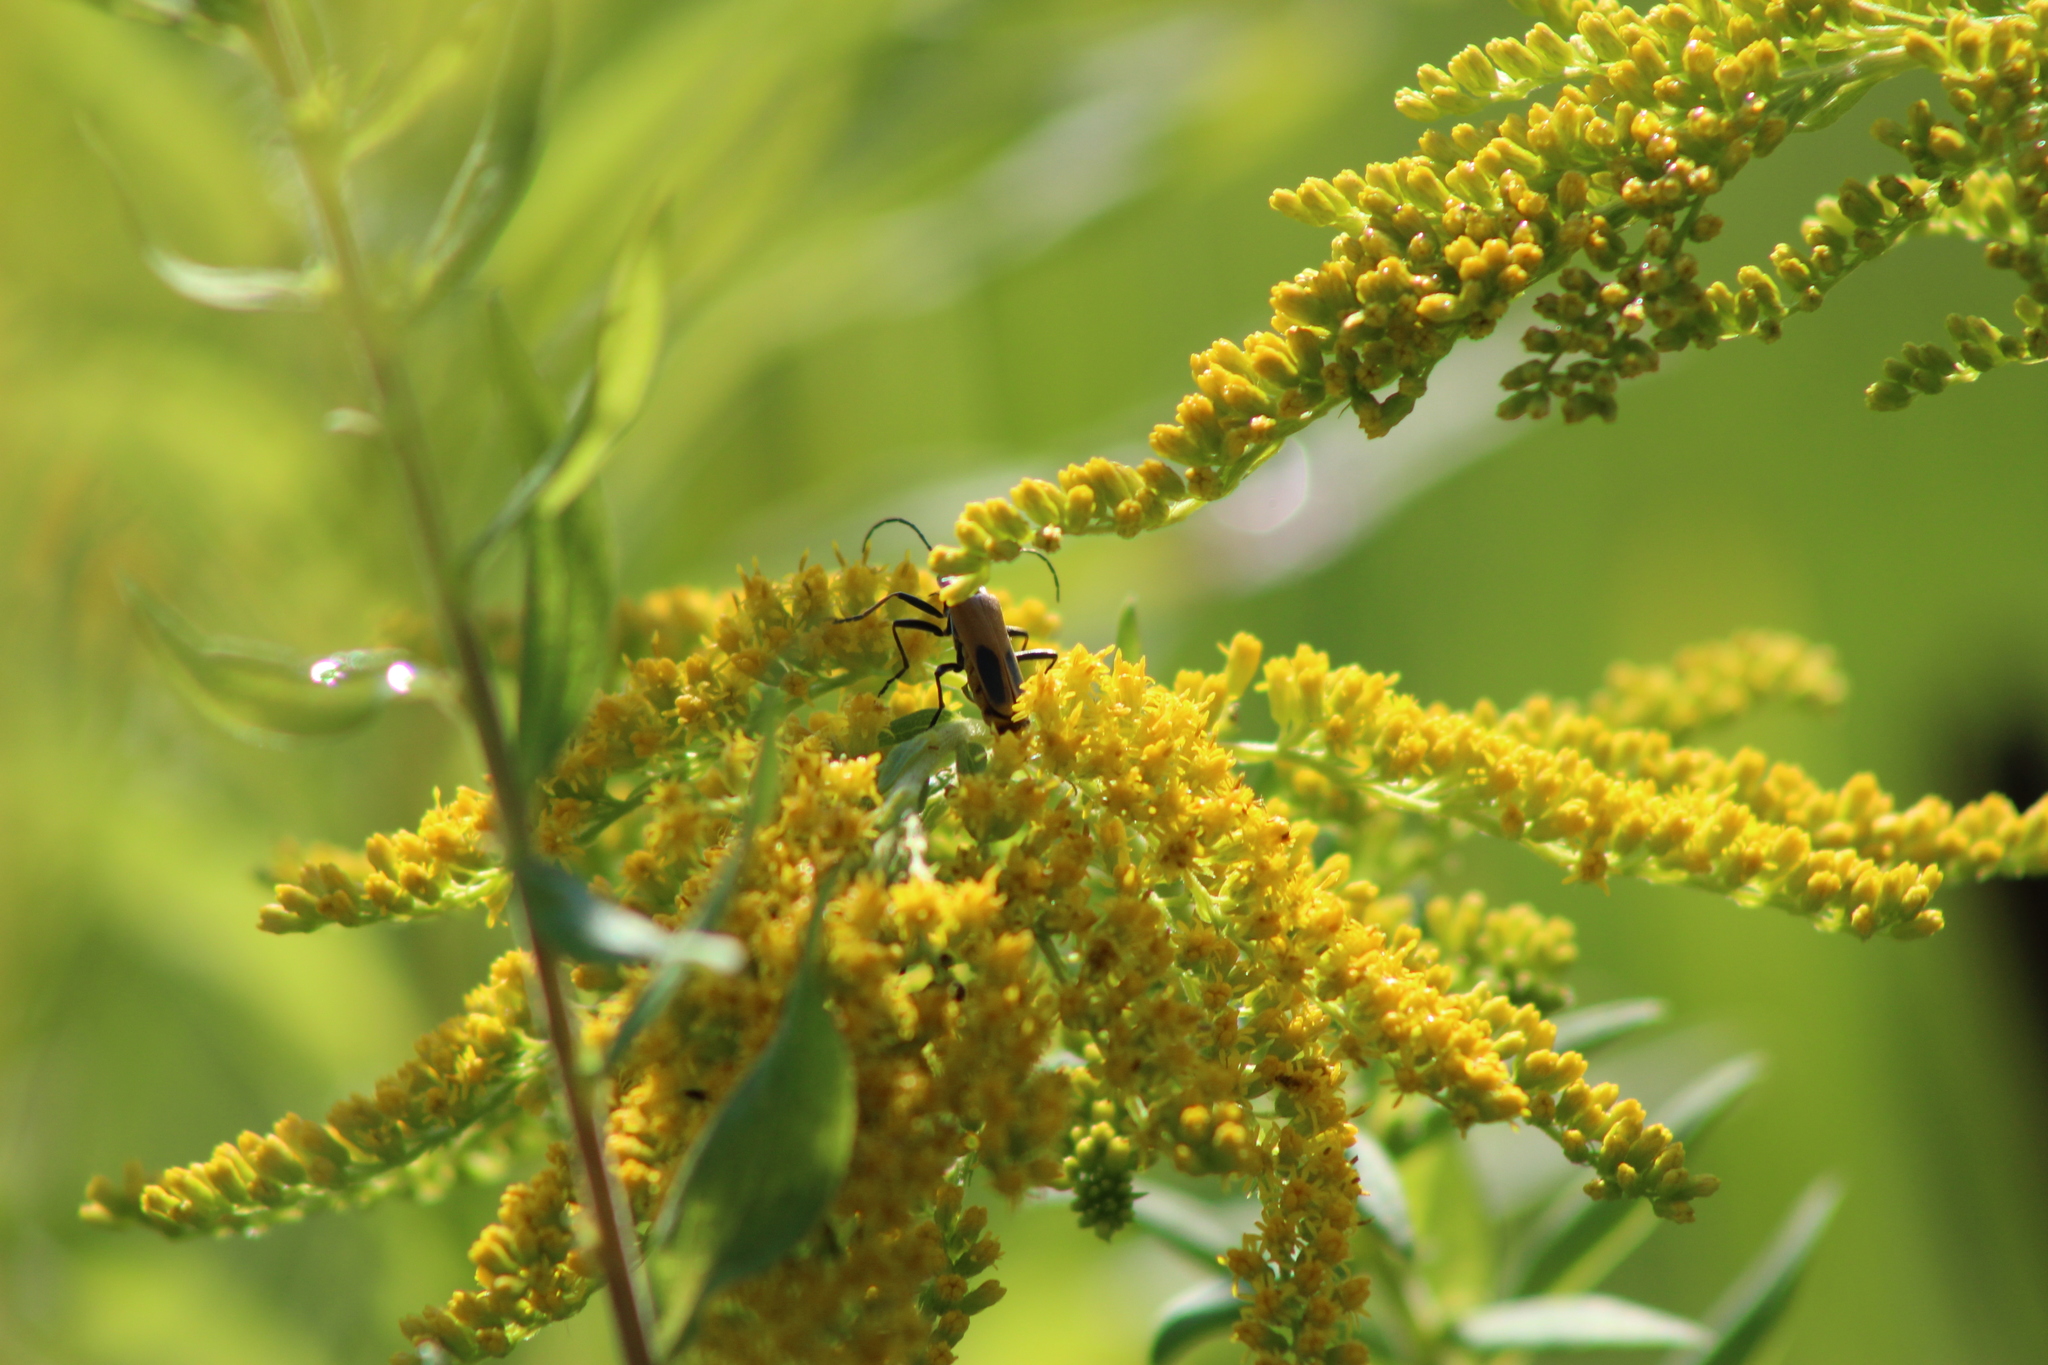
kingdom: Animalia
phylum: Arthropoda
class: Insecta
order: Coleoptera
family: Cantharidae
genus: Chauliognathus
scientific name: Chauliognathus pensylvanicus
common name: Goldenrod soldier beetle
